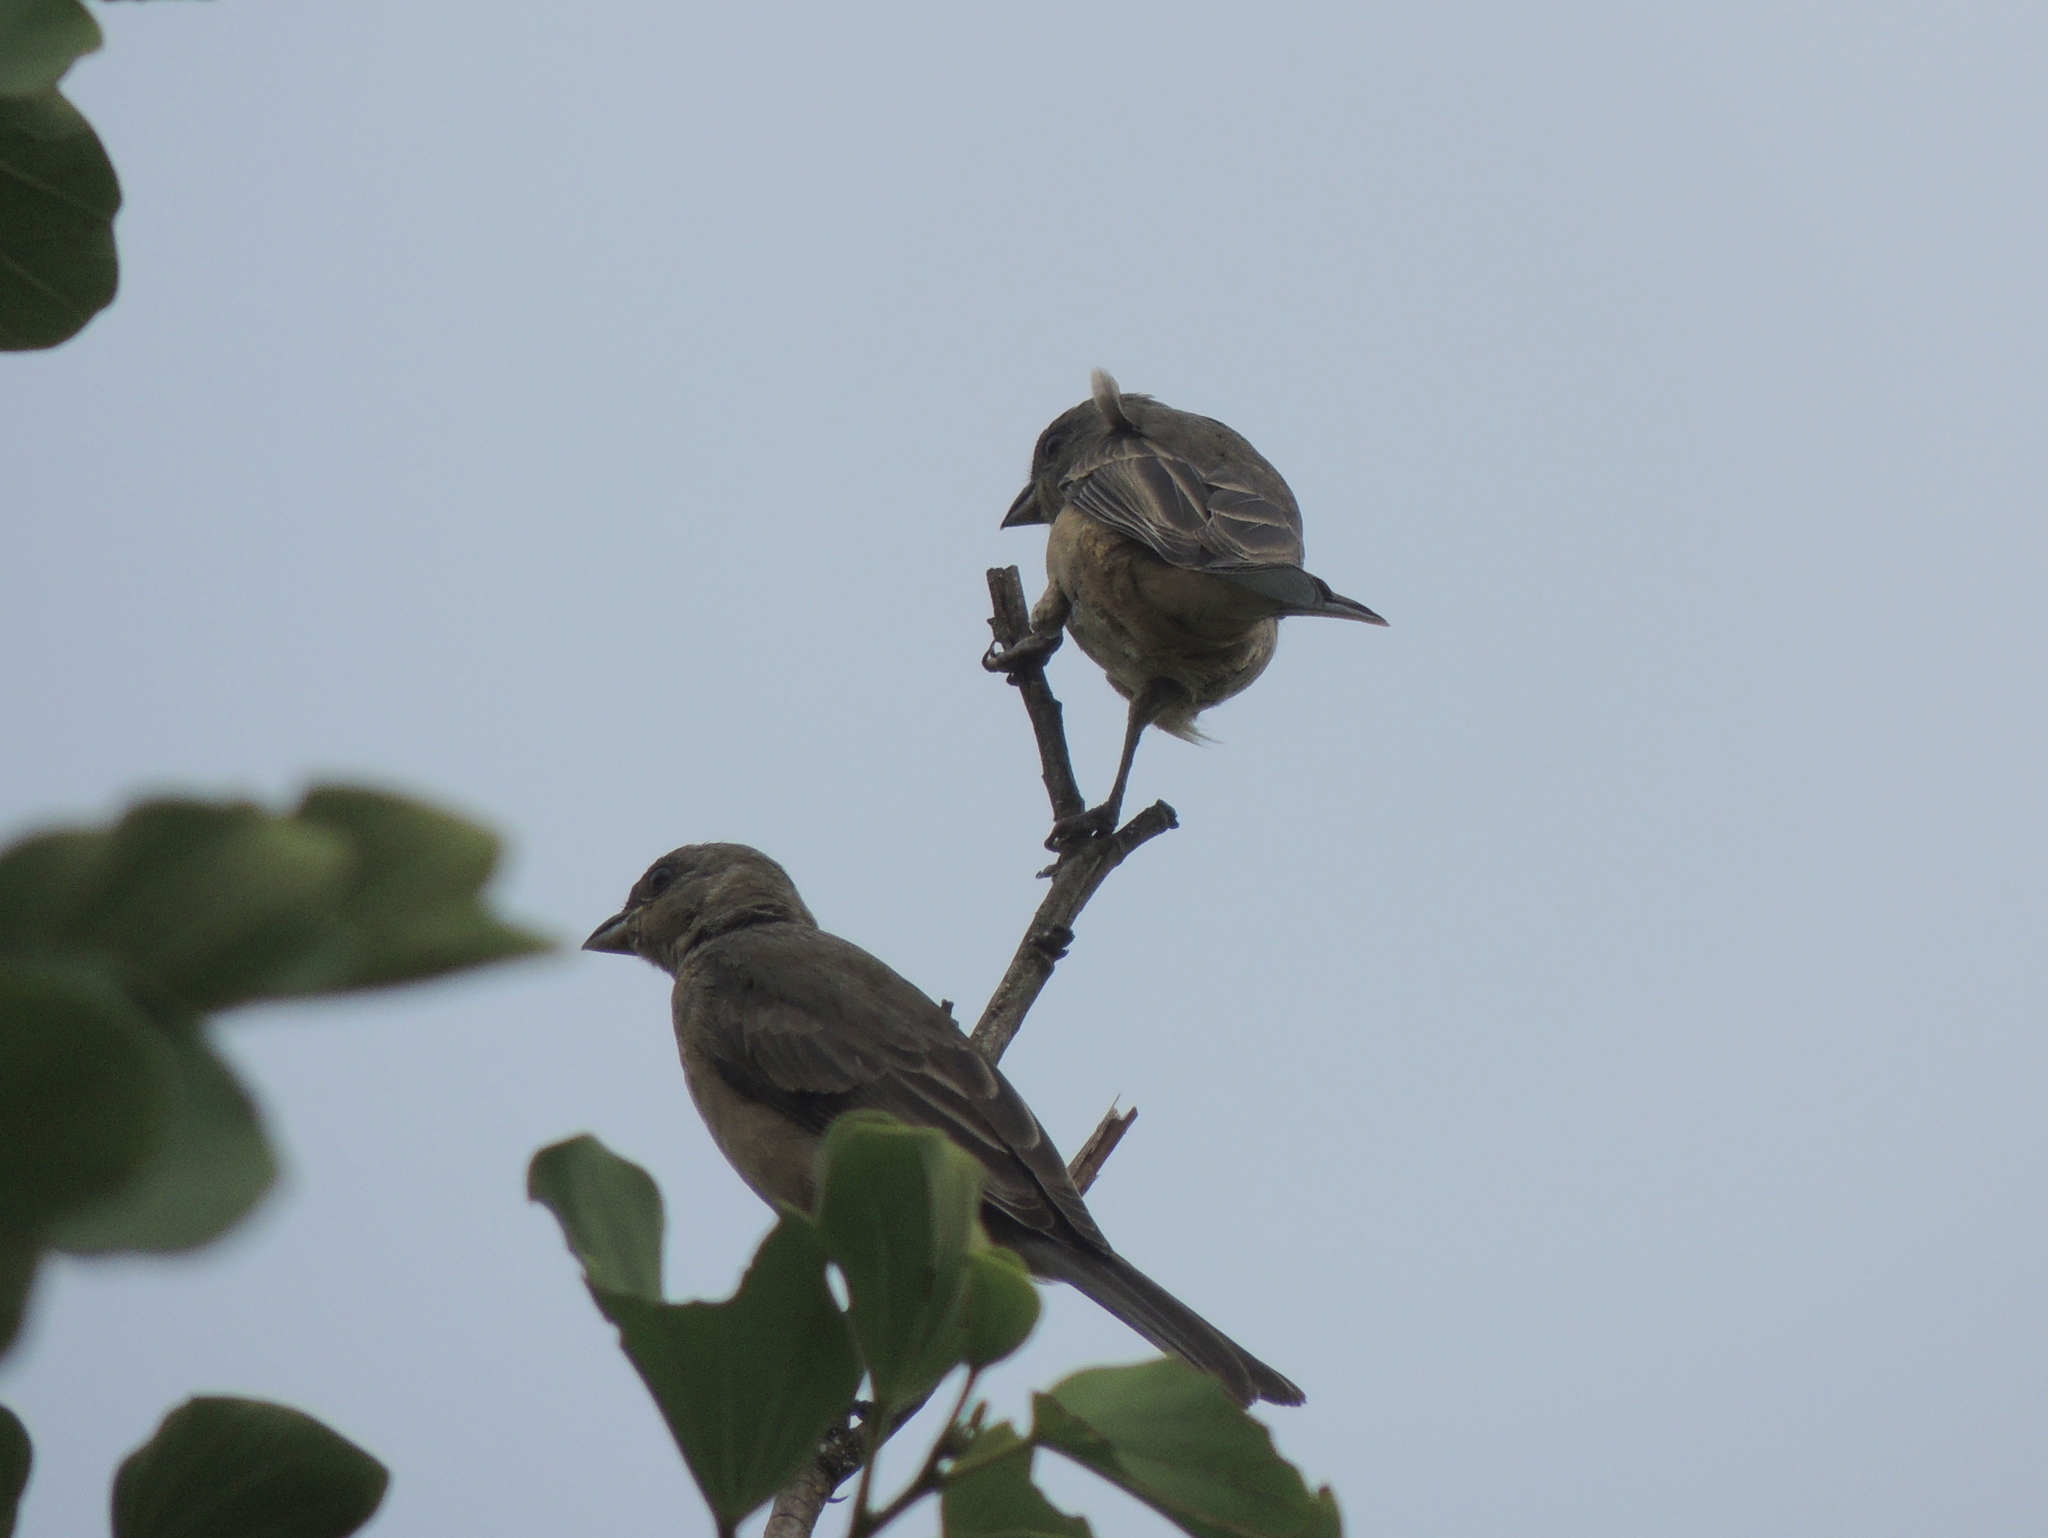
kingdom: Animalia
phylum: Chordata
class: Aves
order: Passeriformes
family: Thraupidae
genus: Rauenia
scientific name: Rauenia bonariensis
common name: Blue-and-yellow tanager
